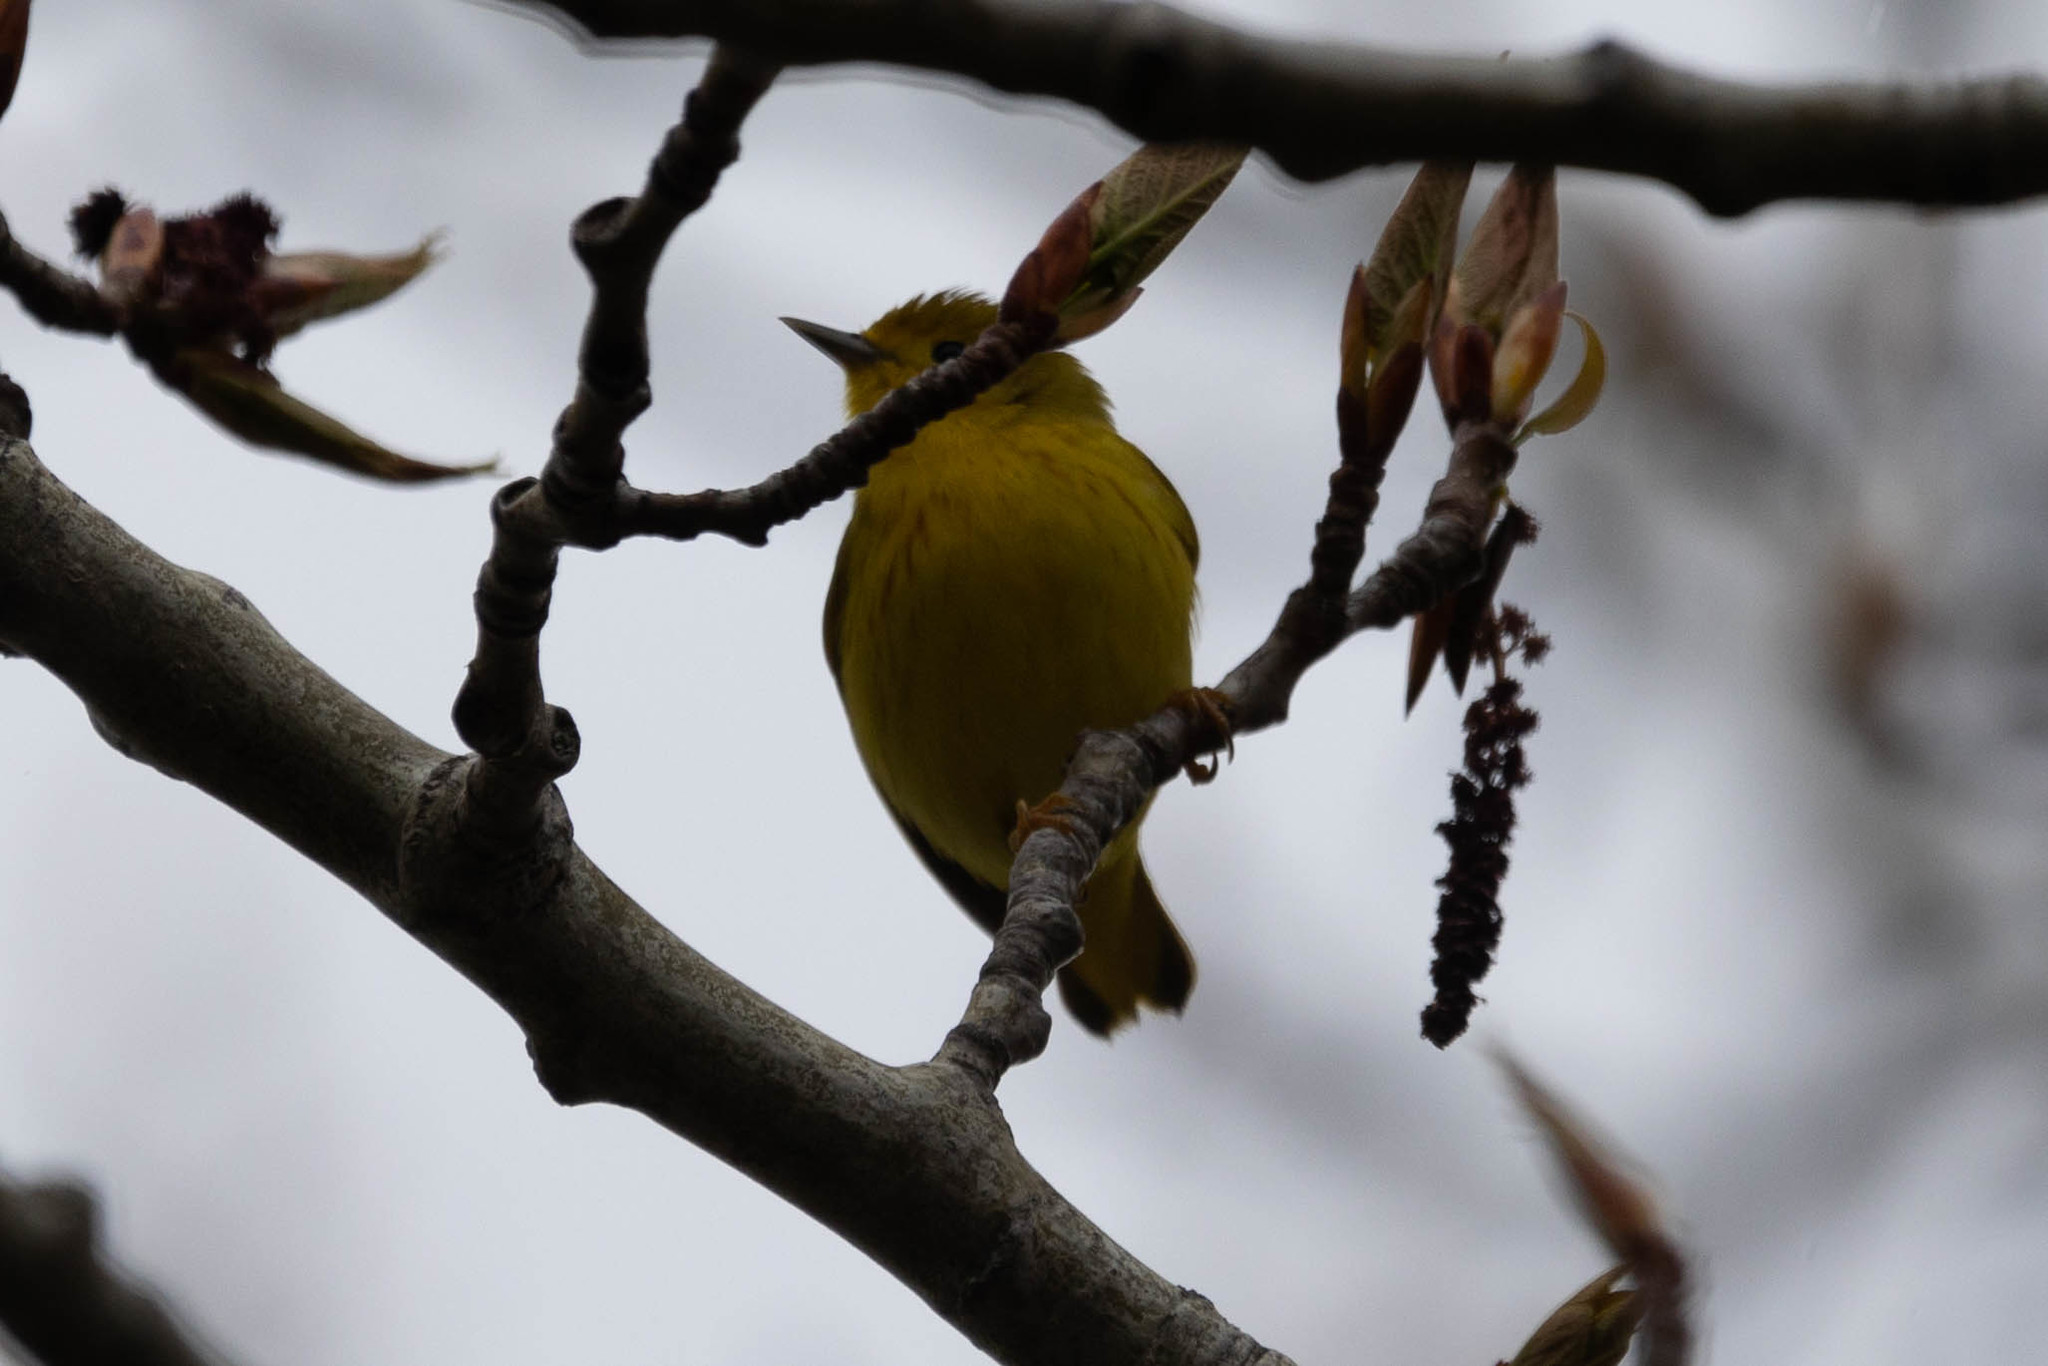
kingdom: Animalia
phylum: Chordata
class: Aves
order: Passeriformes
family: Parulidae
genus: Setophaga
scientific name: Setophaga petechia
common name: Yellow warbler
